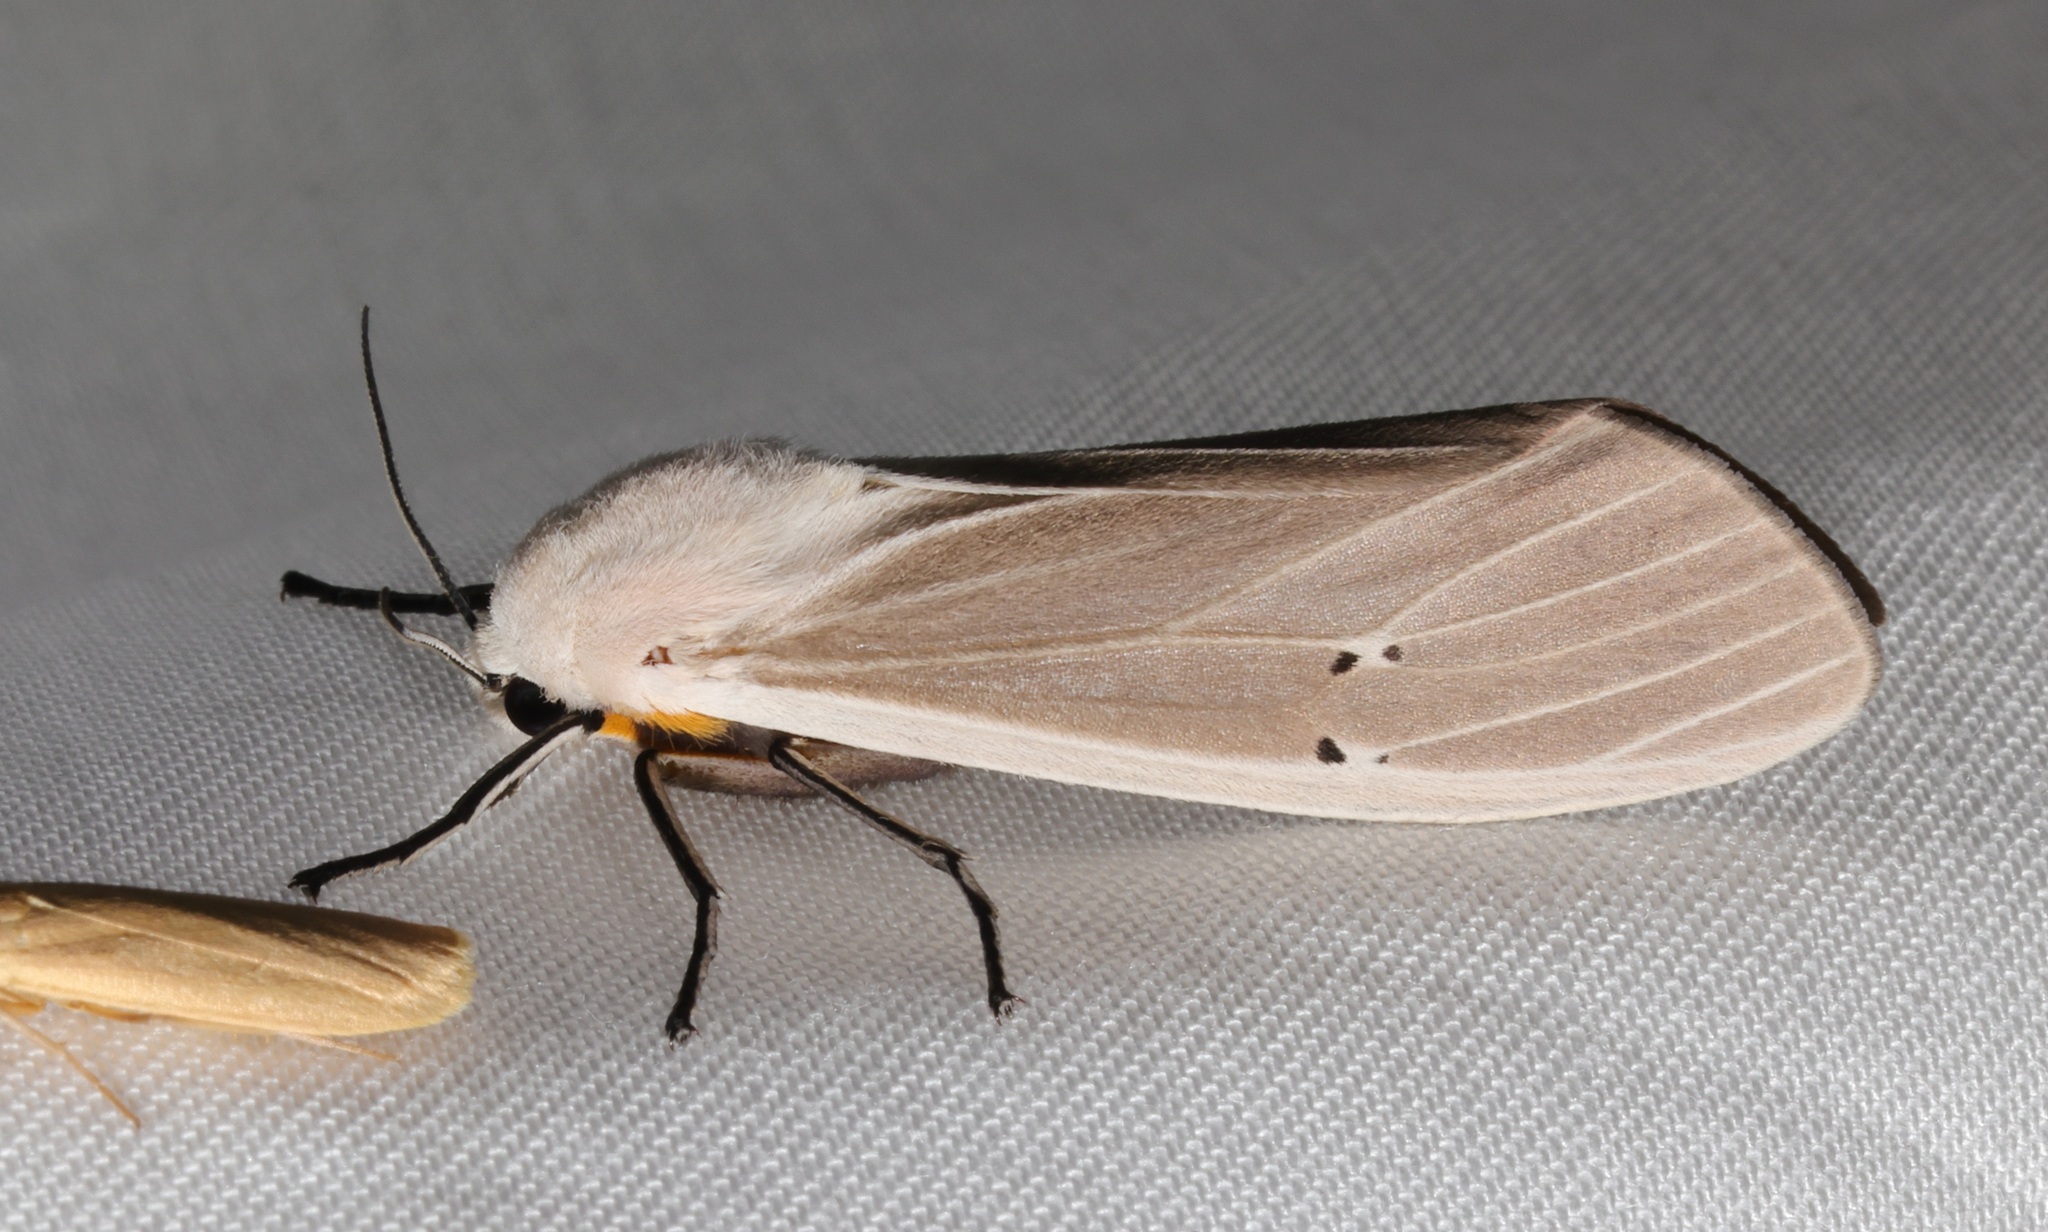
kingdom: Animalia
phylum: Arthropoda
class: Insecta
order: Lepidoptera
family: Erebidae
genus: Creatonotos
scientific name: Creatonotos transiens
